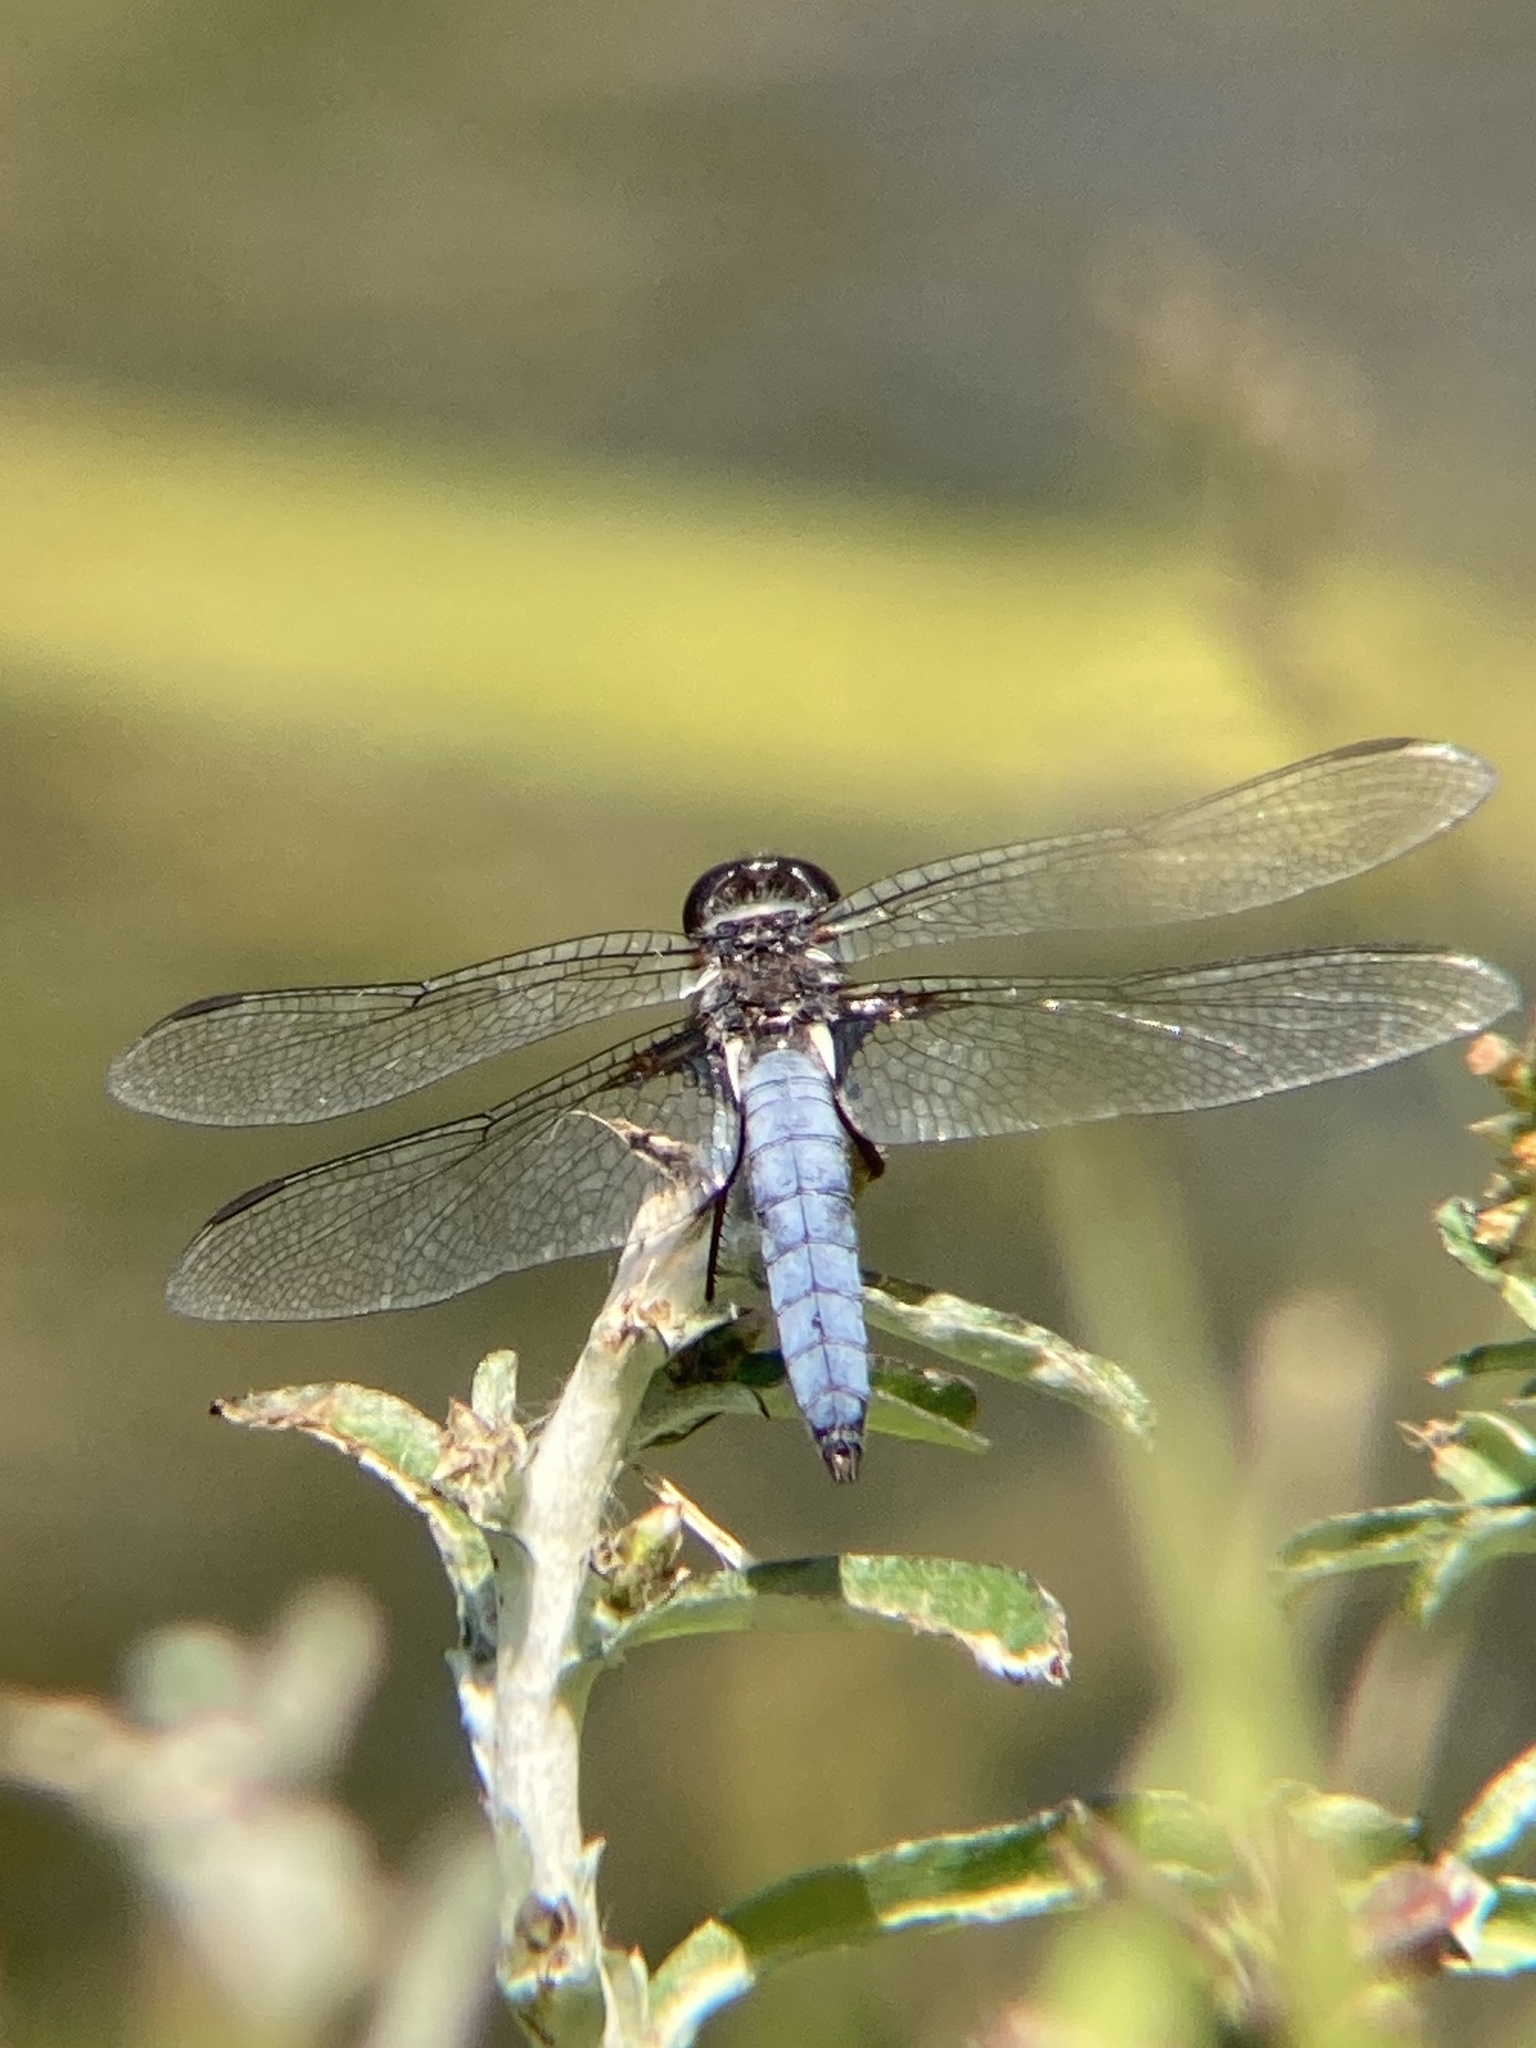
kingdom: Animalia
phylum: Arthropoda
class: Insecta
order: Odonata
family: Libellulidae
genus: Ladona
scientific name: Ladona deplanata
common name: Blue corporal
